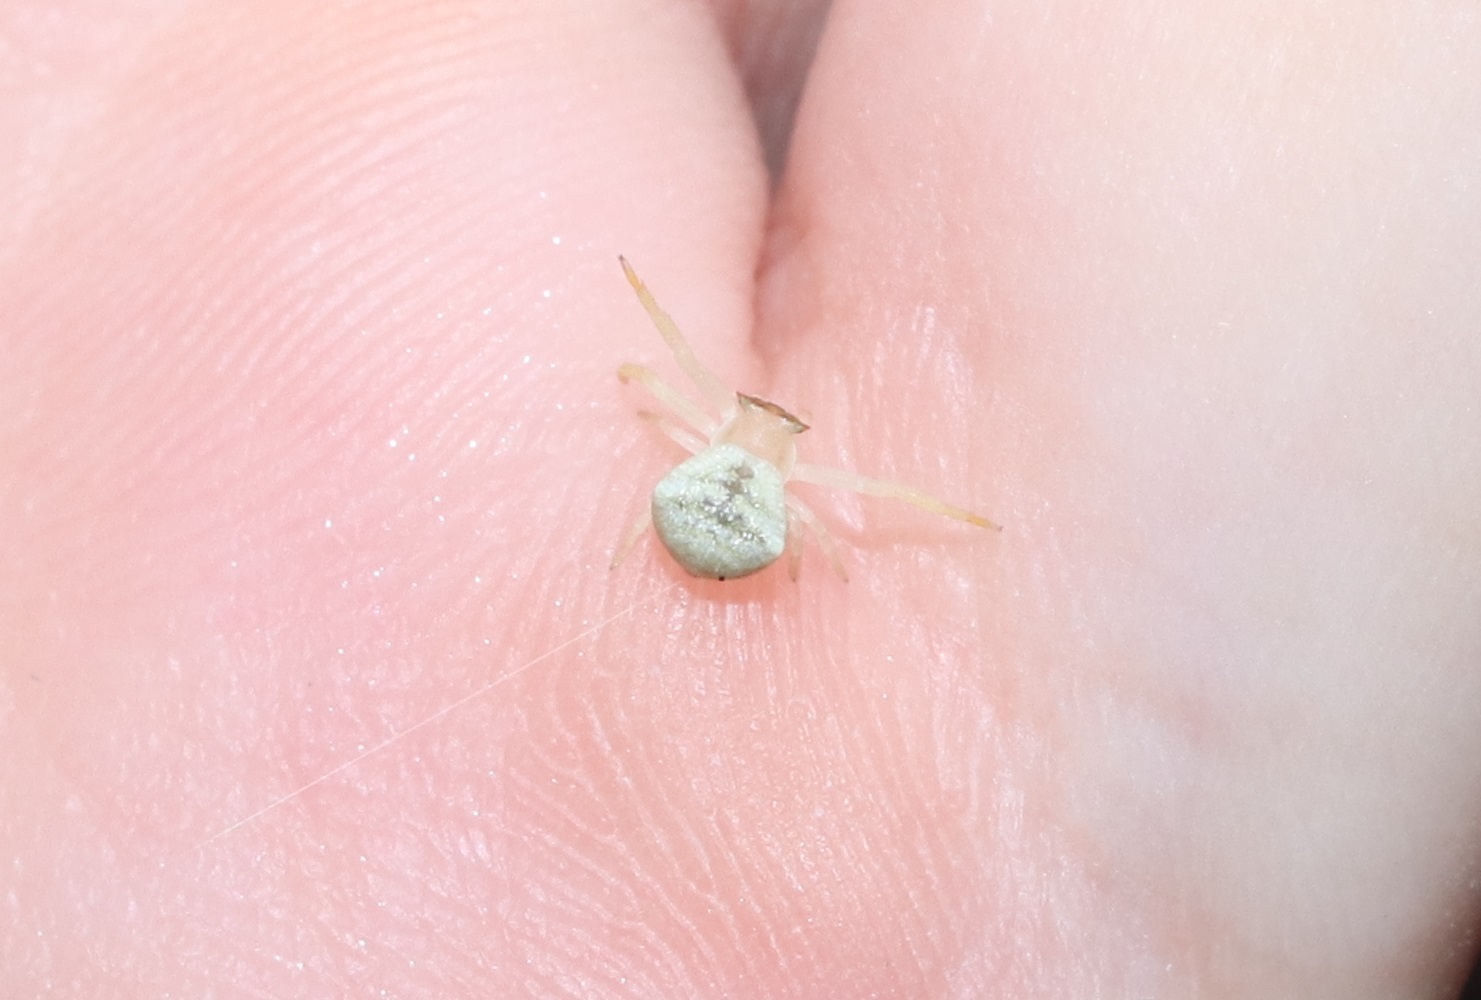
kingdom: Animalia
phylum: Arthropoda
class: Arachnida
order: Araneae
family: Thomisidae
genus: Thomisus
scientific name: Thomisus labefactus
